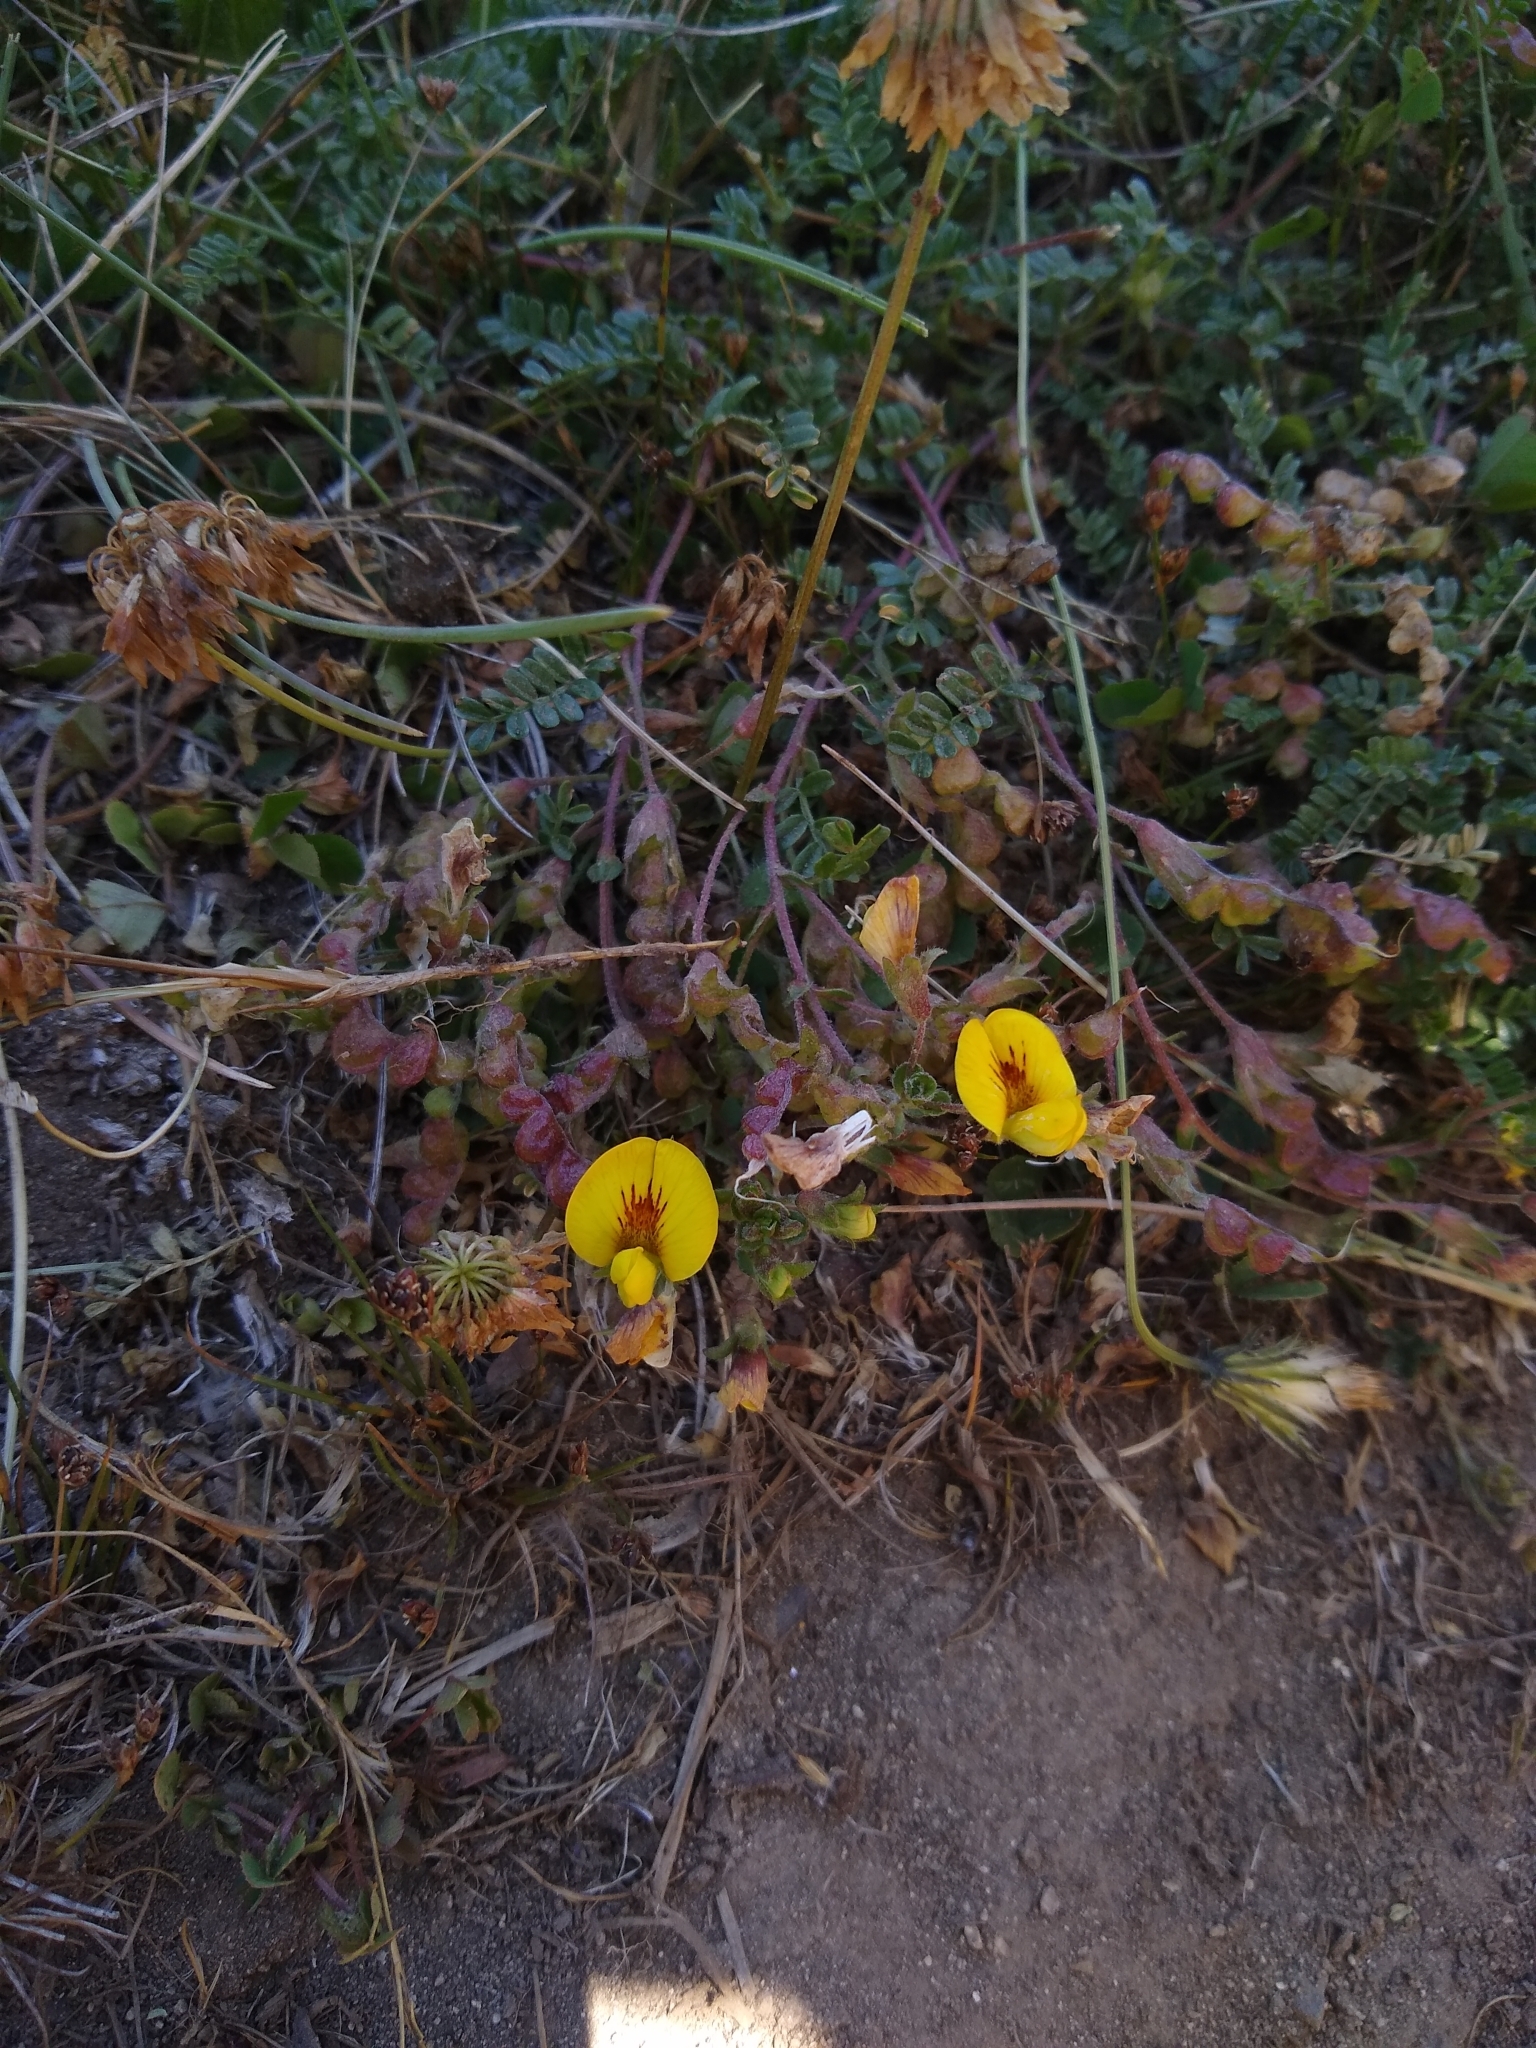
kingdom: Plantae
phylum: Tracheophyta
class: Magnoliopsida
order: Fabales
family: Fabaceae
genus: Adesmia
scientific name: Adesmia retusa
